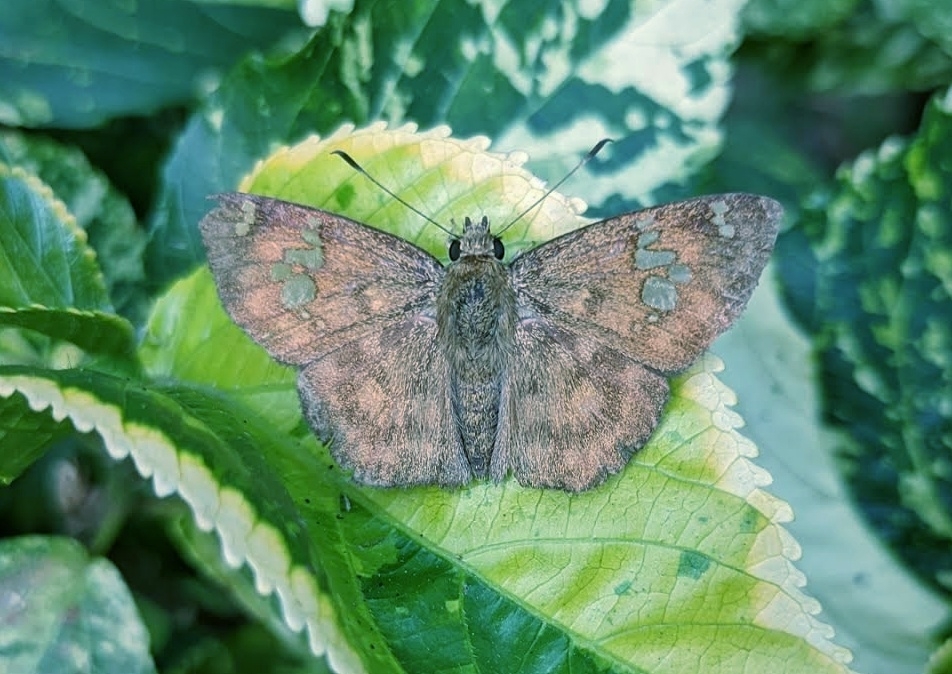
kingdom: Animalia
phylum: Arthropoda
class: Insecta
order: Lepidoptera
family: Hesperiidae
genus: Pseudocoladenia
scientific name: Pseudocoladenia dan
